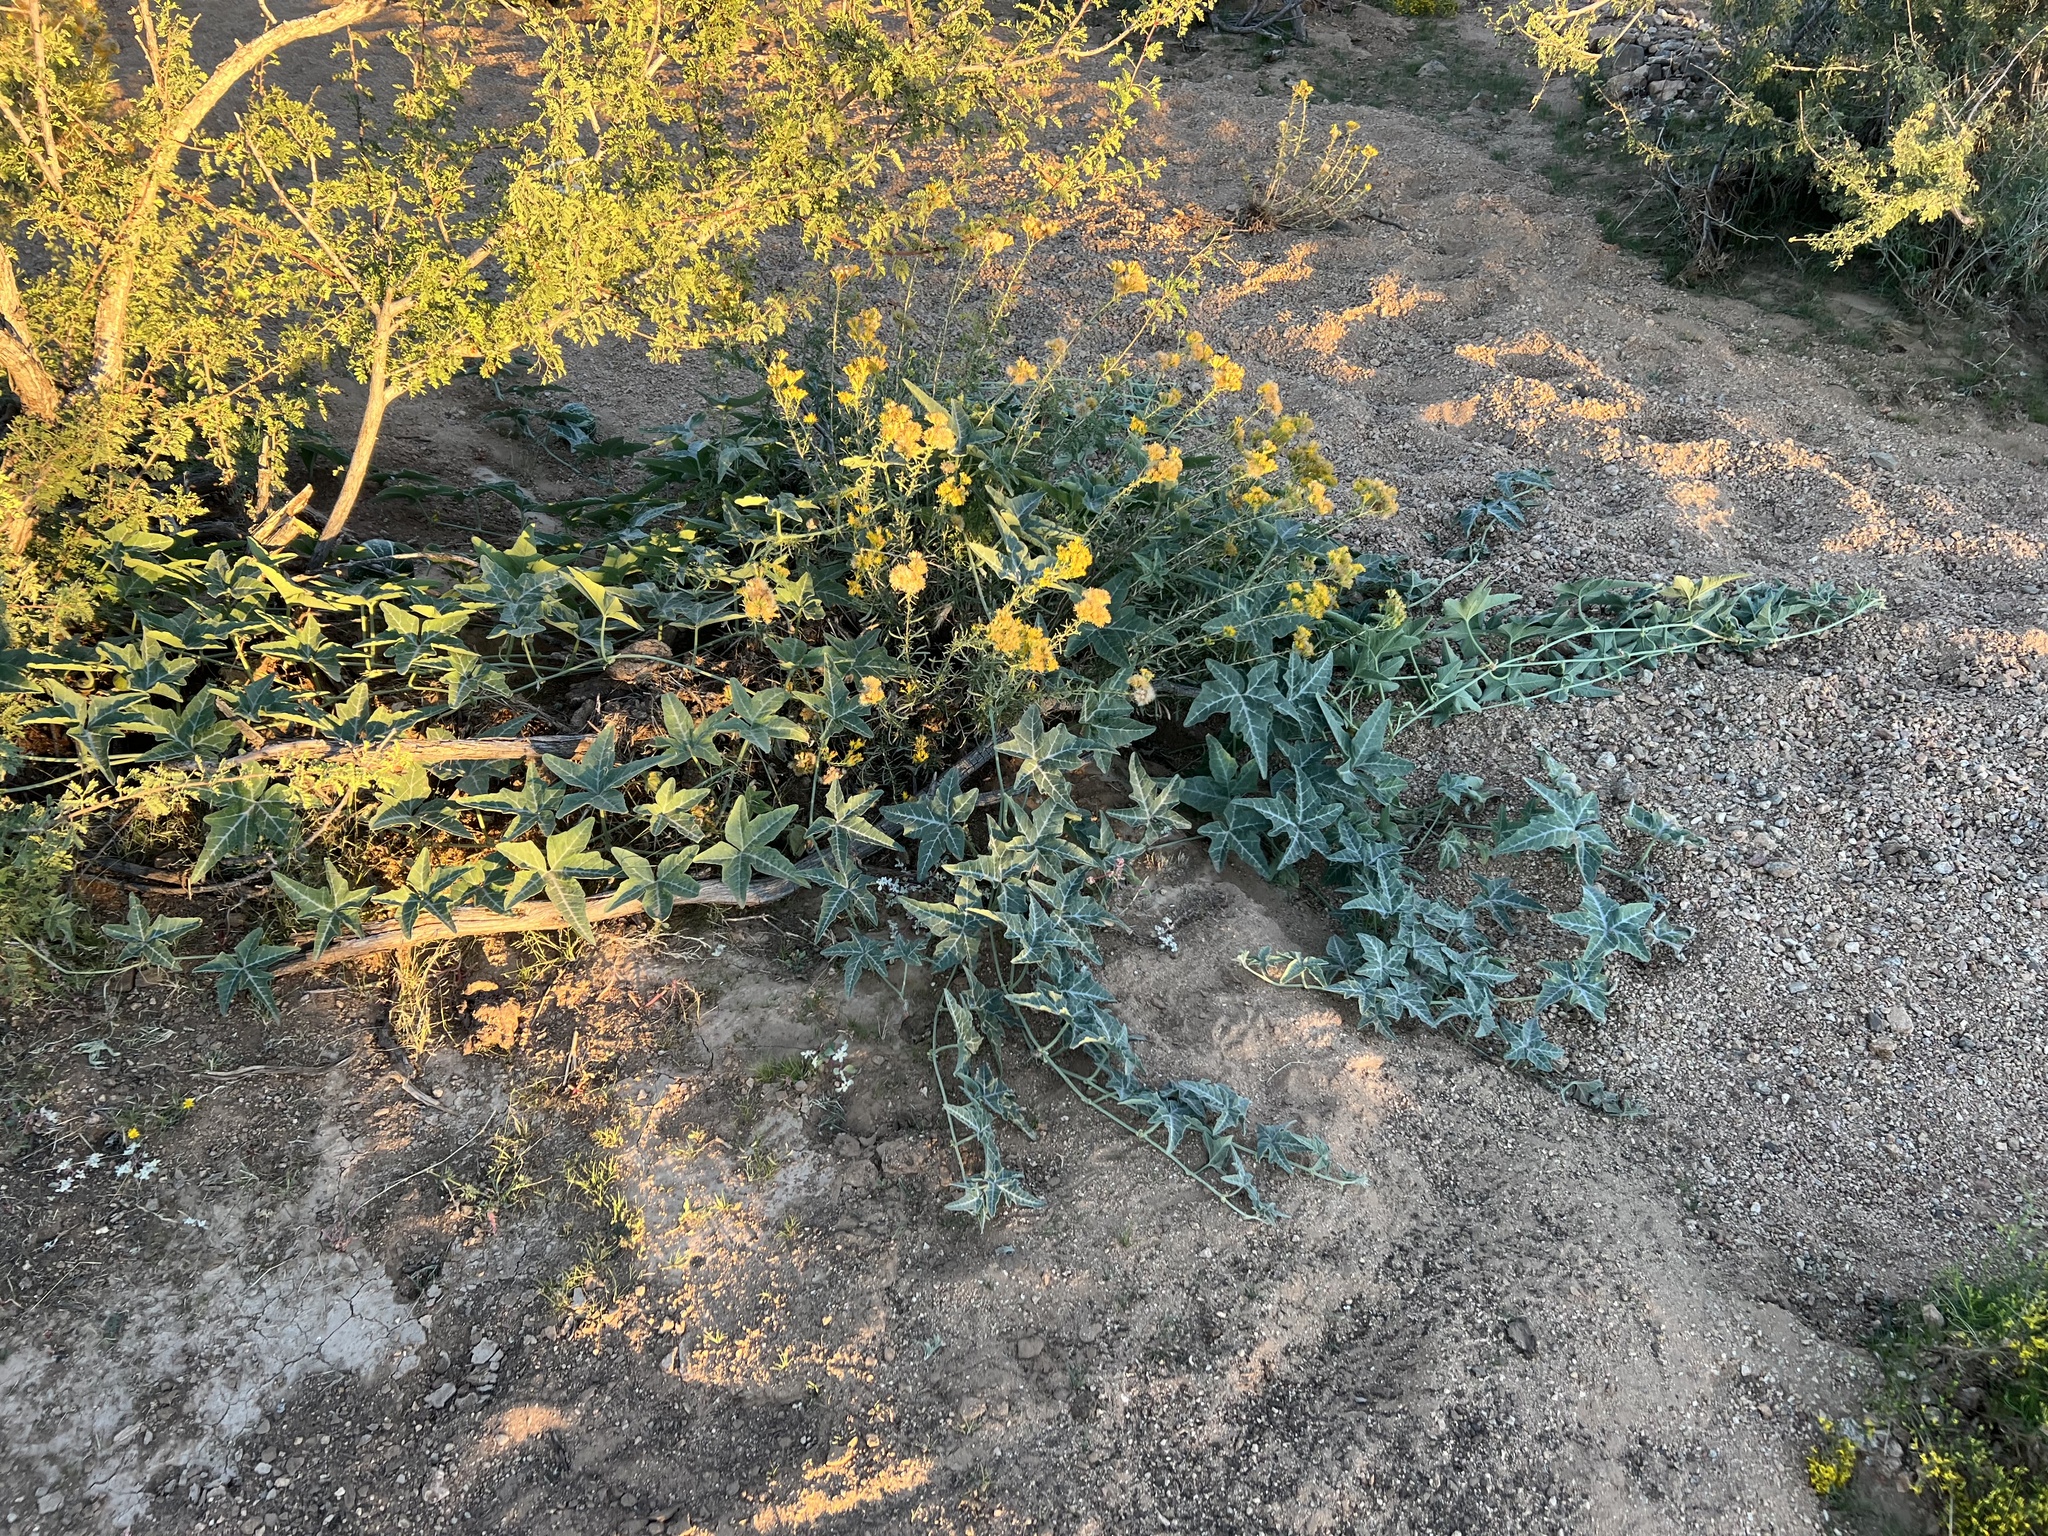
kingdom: Plantae
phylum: Tracheophyta
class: Magnoliopsida
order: Cucurbitales
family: Cucurbitaceae
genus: Cucurbita
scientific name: Cucurbita palmata
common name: Coyote-melon
